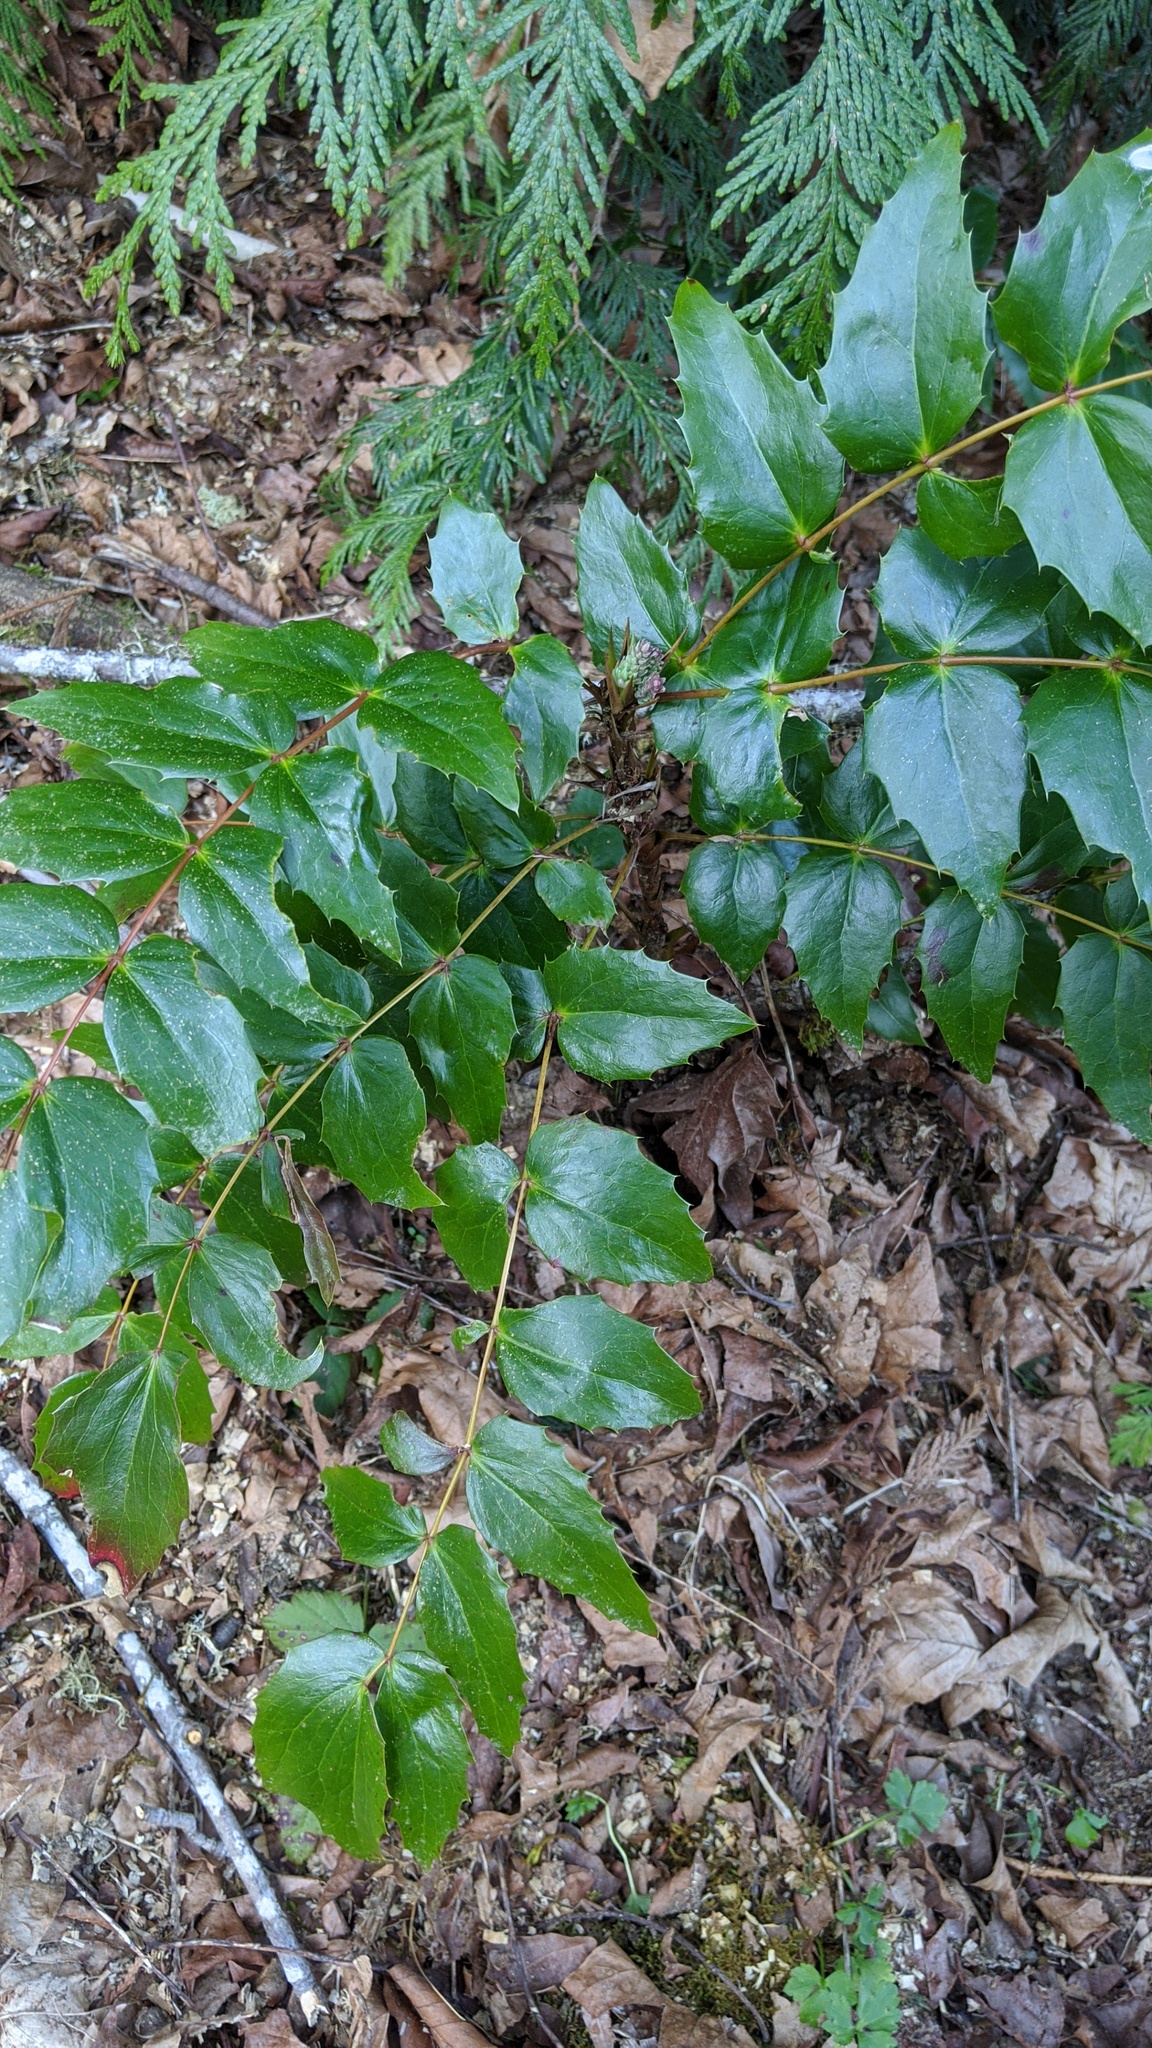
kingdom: Plantae
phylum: Tracheophyta
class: Magnoliopsida
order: Ranunculales
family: Berberidaceae
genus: Mahonia
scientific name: Mahonia nervosa
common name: Cascade oregon-grape
